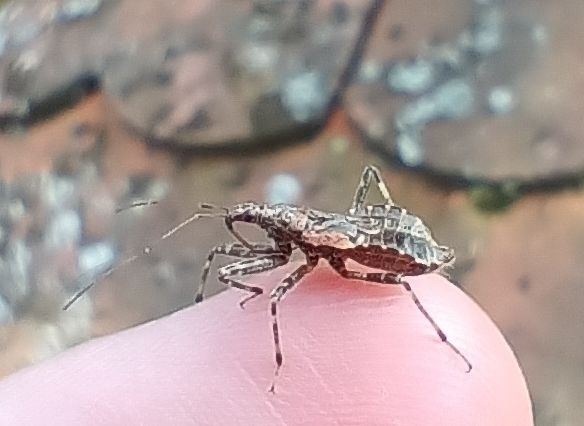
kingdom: Animalia
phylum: Arthropoda
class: Insecta
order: Hemiptera
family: Nabidae
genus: Himacerus
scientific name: Himacerus apterus
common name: Tree damsel bug
